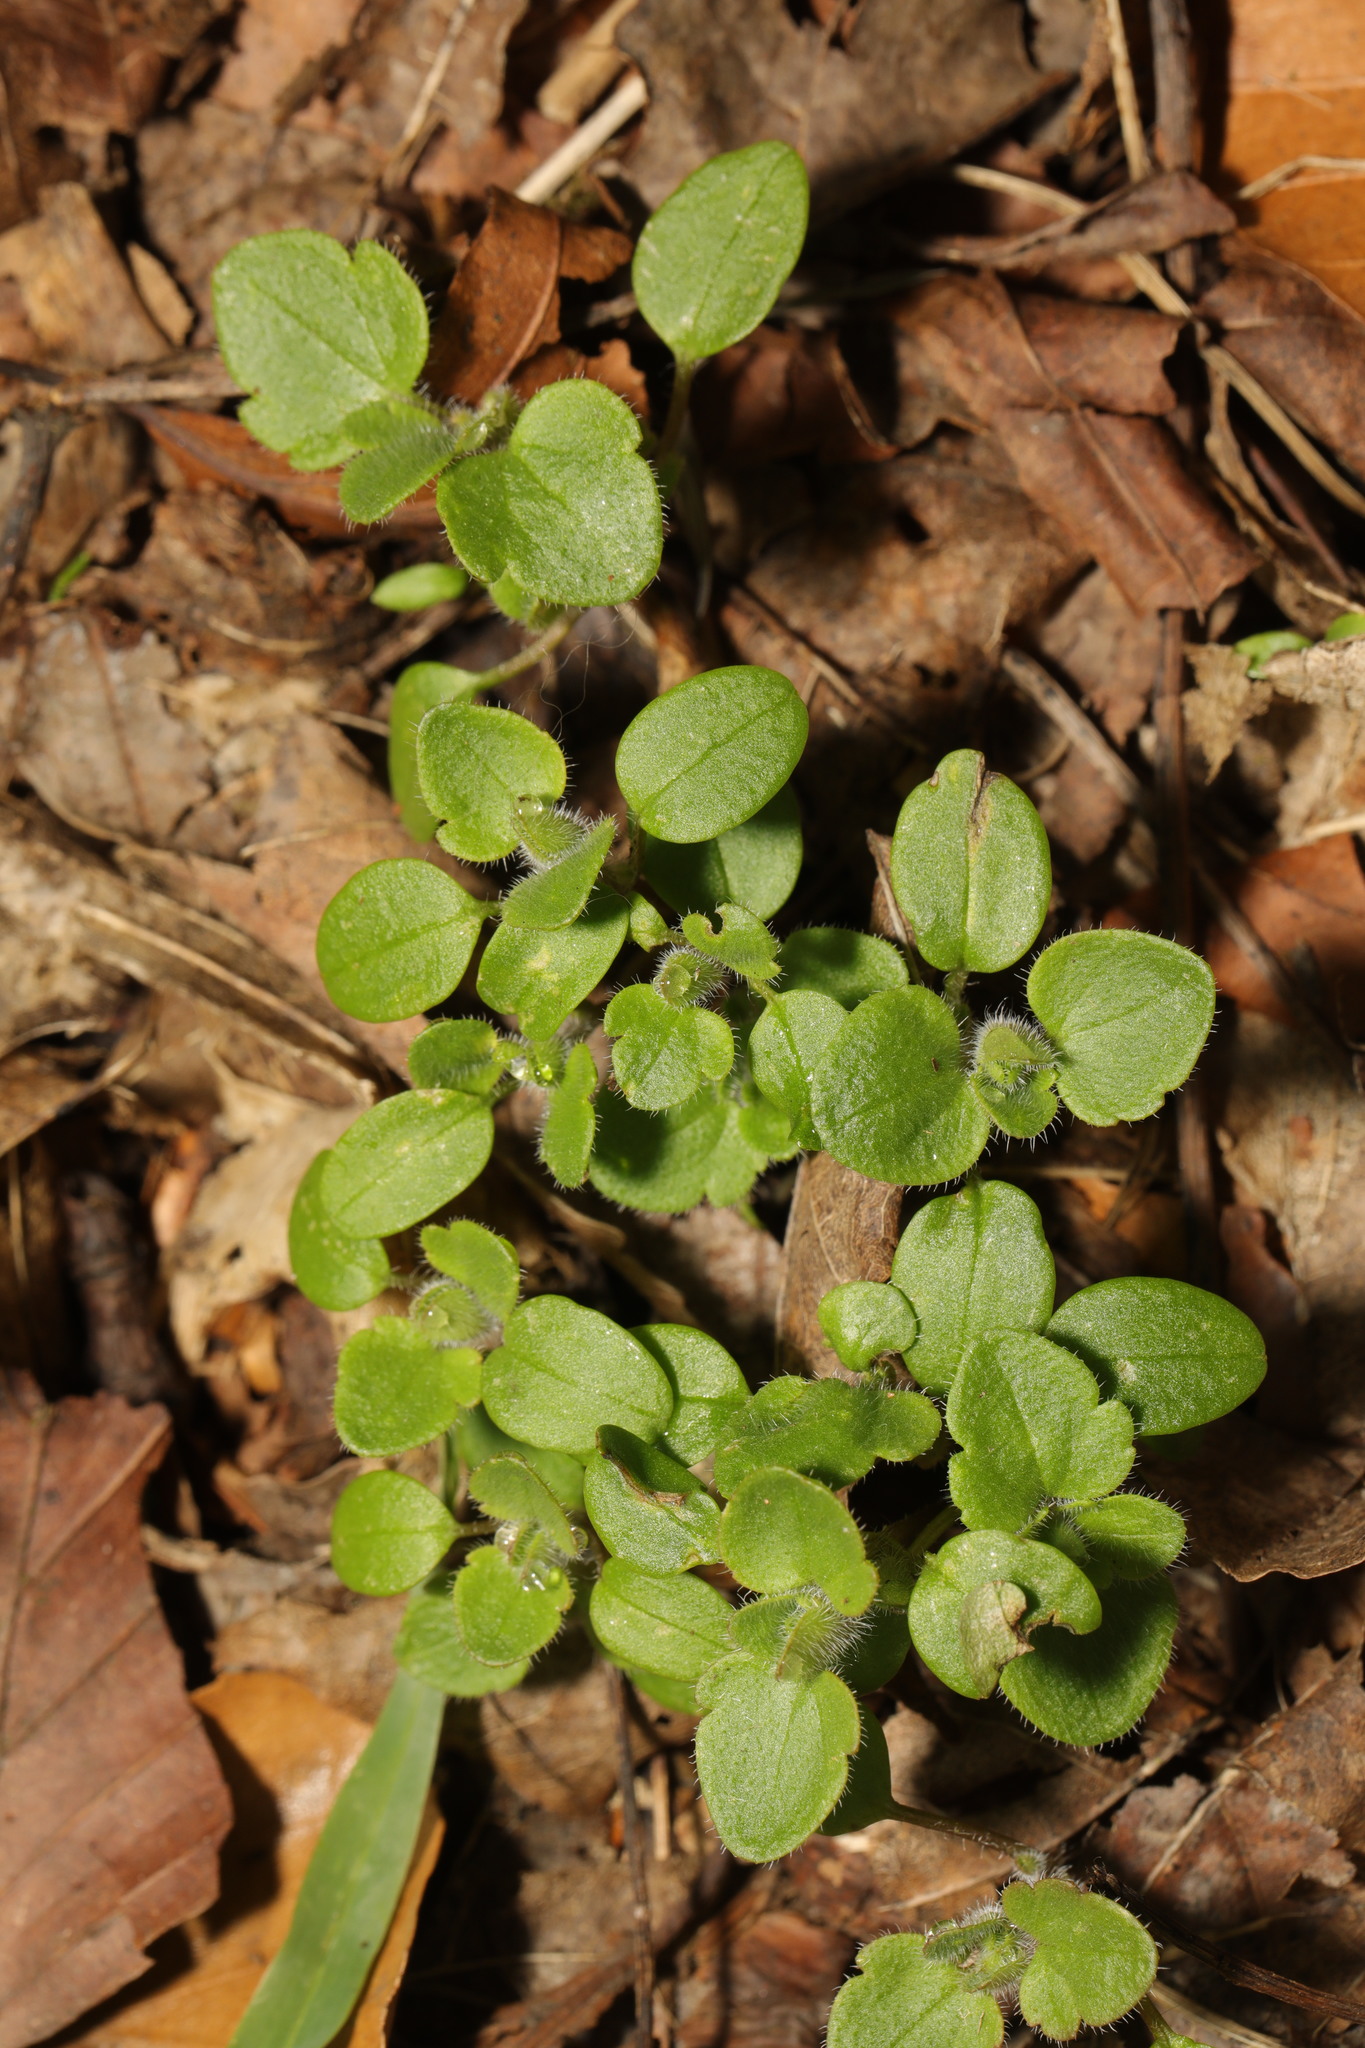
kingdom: Plantae
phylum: Tracheophyta
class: Magnoliopsida
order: Lamiales
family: Plantaginaceae
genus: Veronica
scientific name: Veronica hederifolia
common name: Ivy-leaved speedwell
